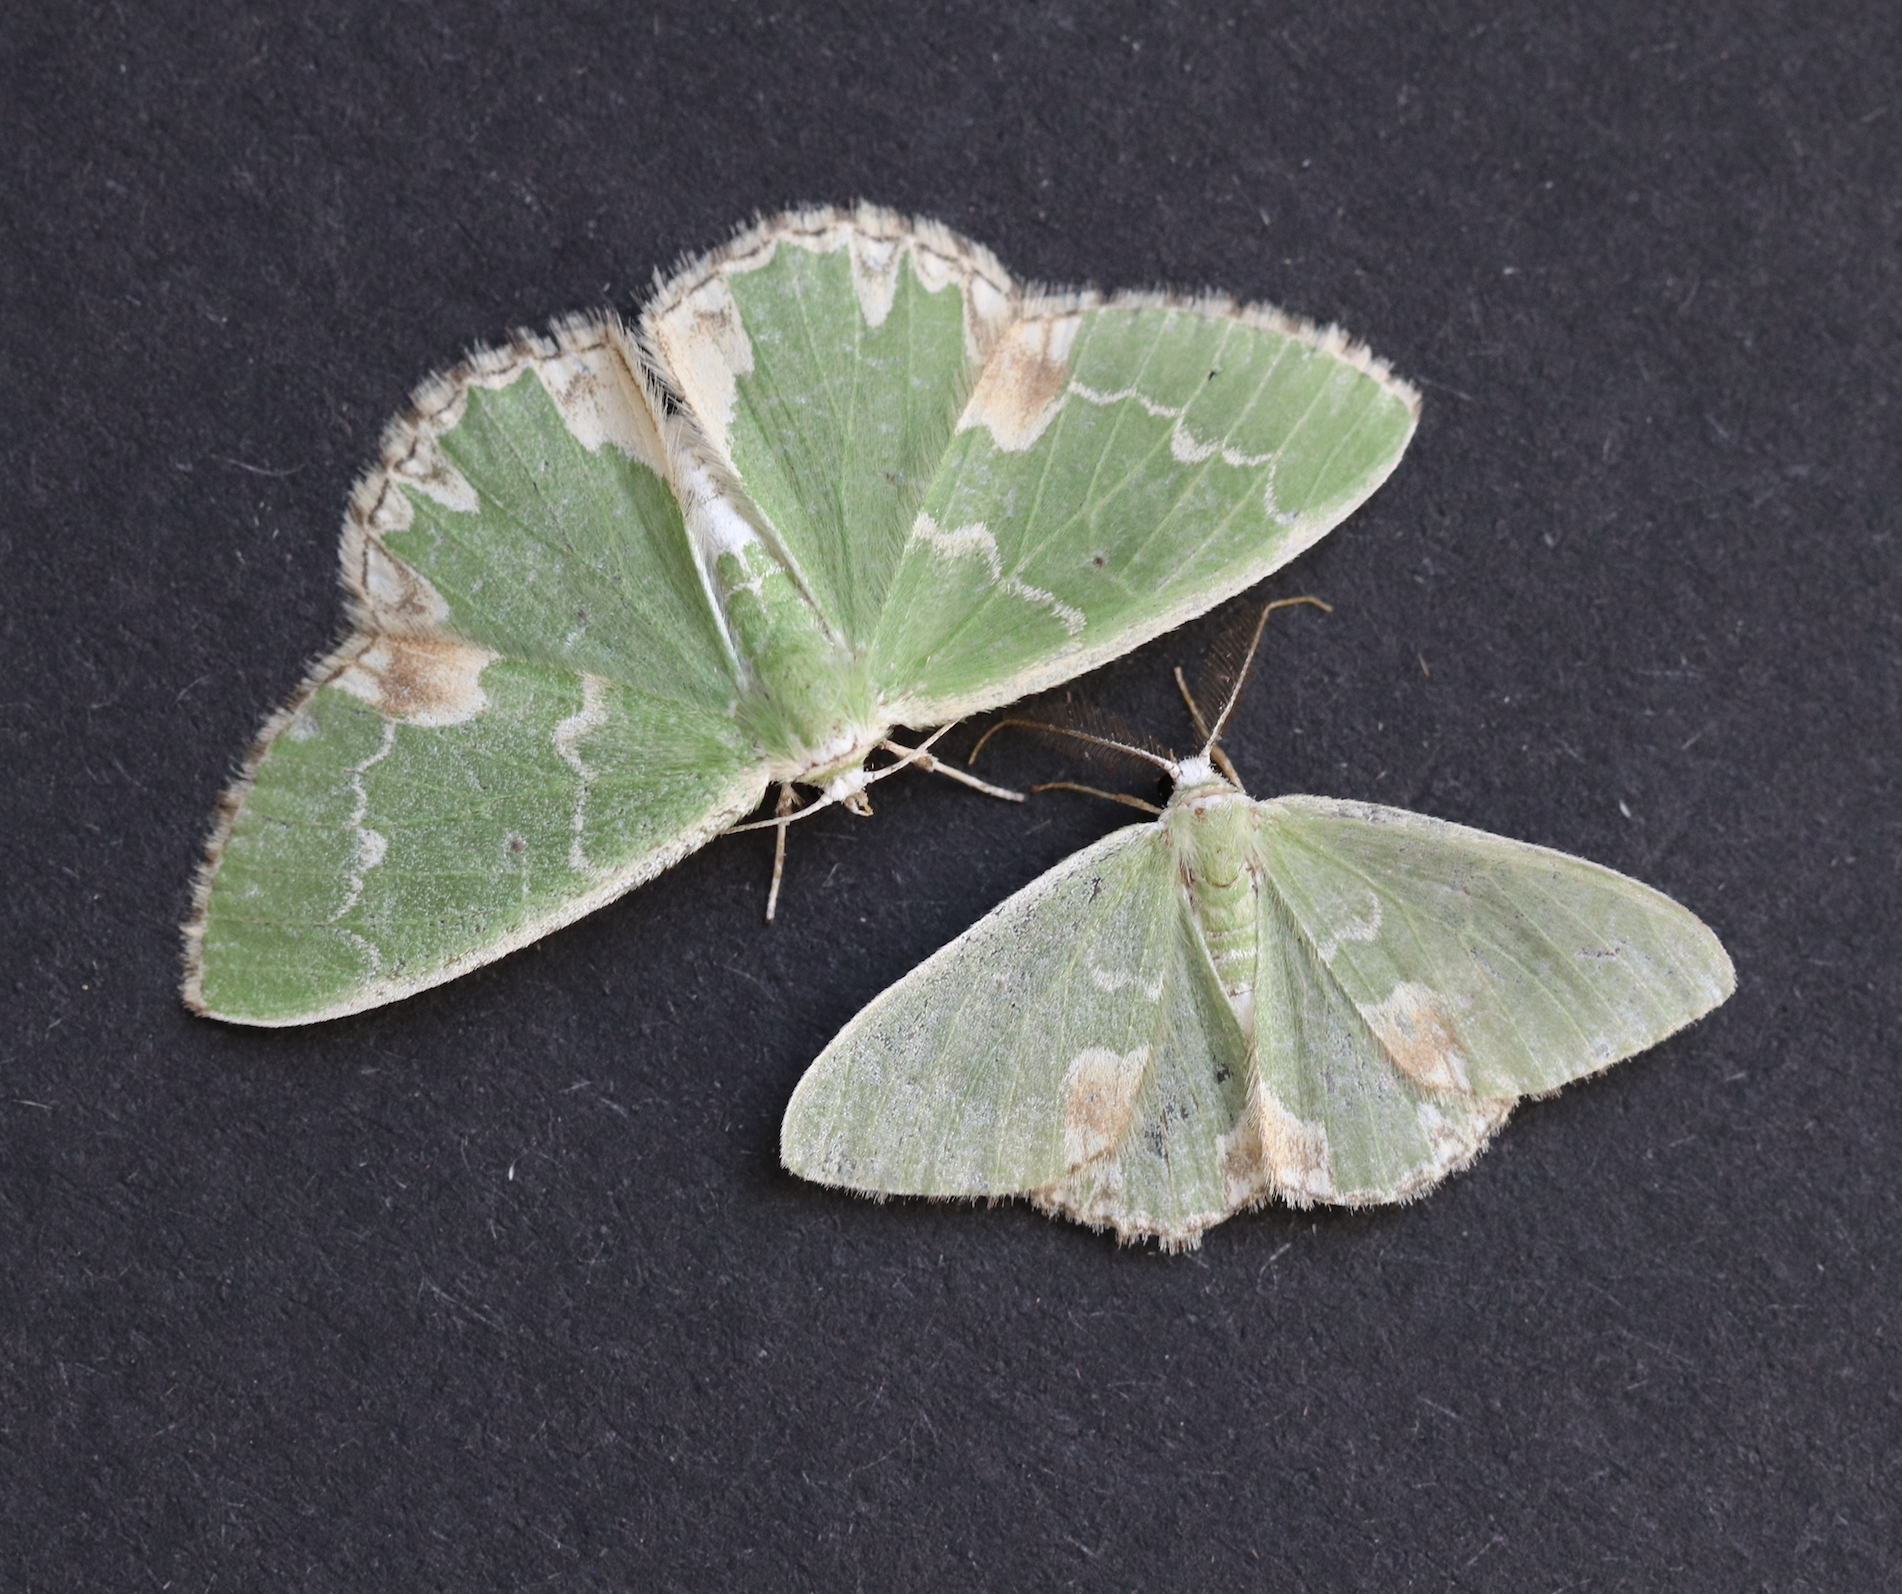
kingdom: Animalia
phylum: Arthropoda
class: Insecta
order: Lepidoptera
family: Geometridae
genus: Comibaena
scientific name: Comibaena bajularia
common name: Blotched emerald
